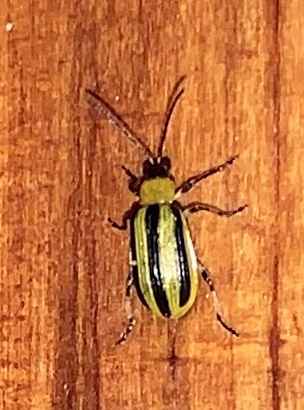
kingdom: Animalia
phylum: Arthropoda
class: Insecta
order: Coleoptera
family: Chrysomelidae
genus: Acalymma
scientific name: Acalymma vittatum
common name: Striped cucumber beetle
